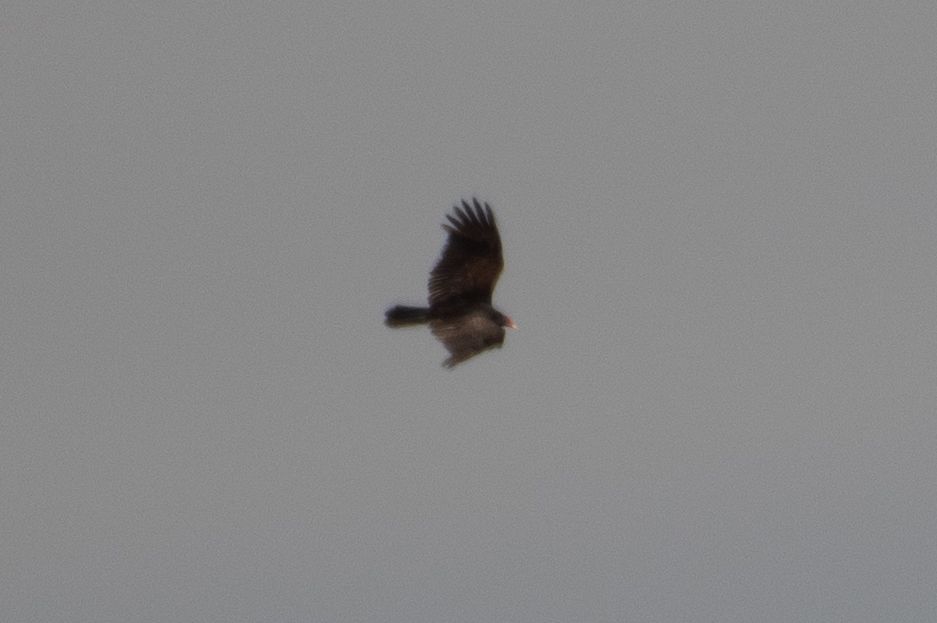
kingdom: Animalia
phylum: Chordata
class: Aves
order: Accipitriformes
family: Cathartidae
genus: Cathartes
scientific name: Cathartes aura
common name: Turkey vulture
